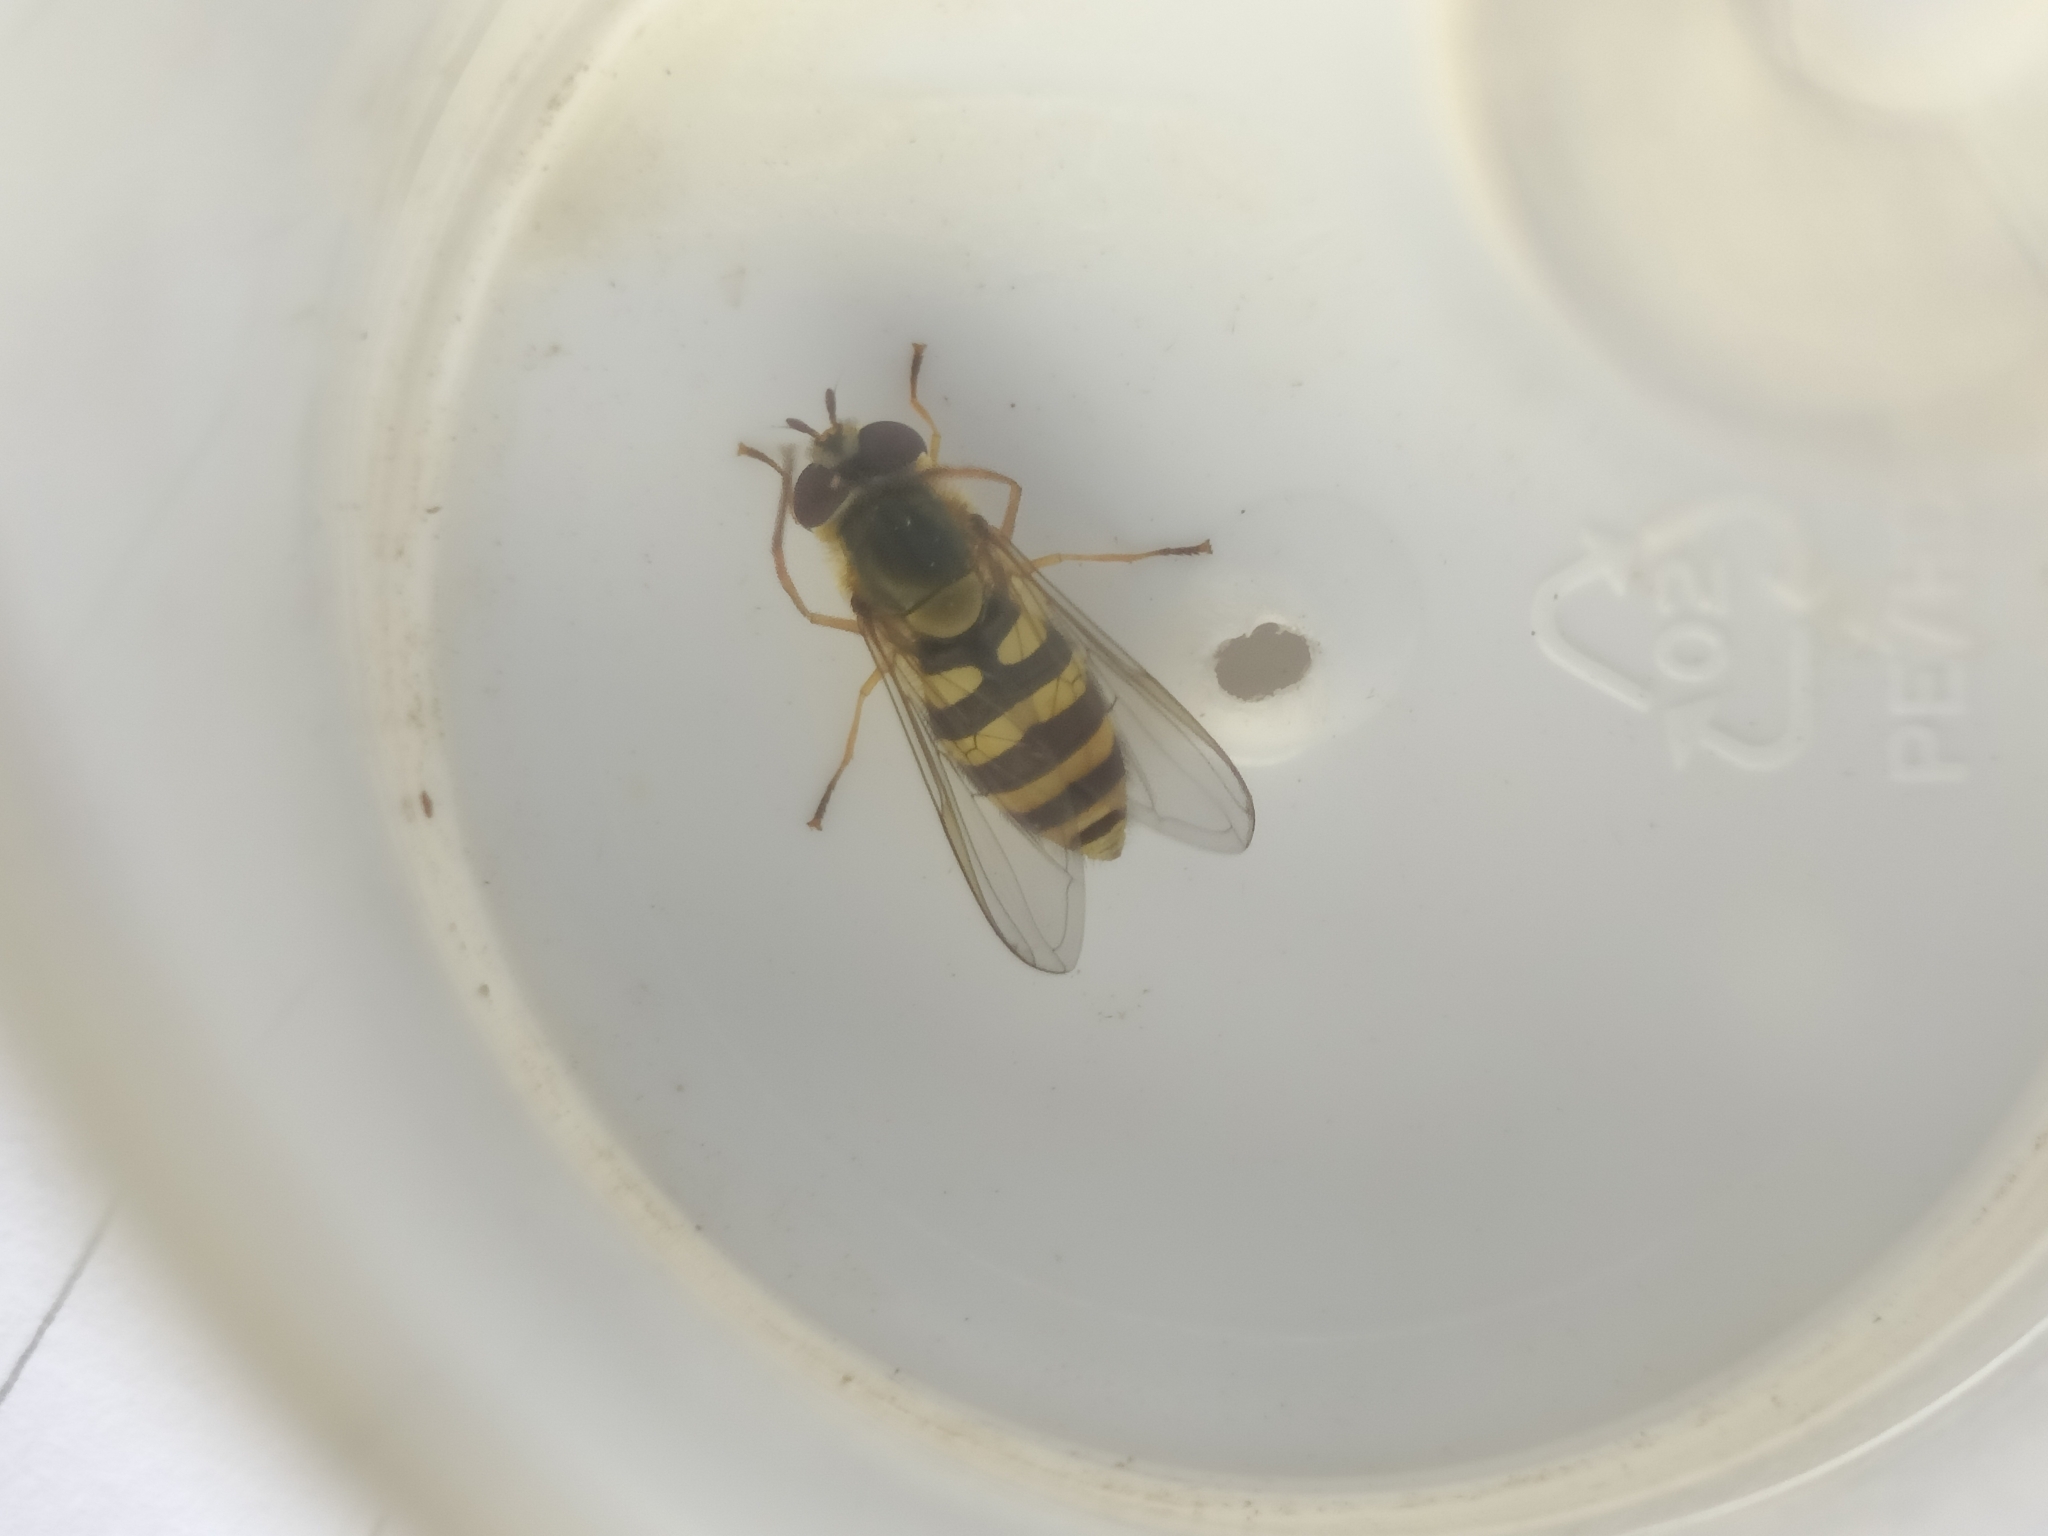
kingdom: Animalia
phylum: Arthropoda
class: Insecta
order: Diptera
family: Syrphidae
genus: Syrphus
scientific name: Syrphus
